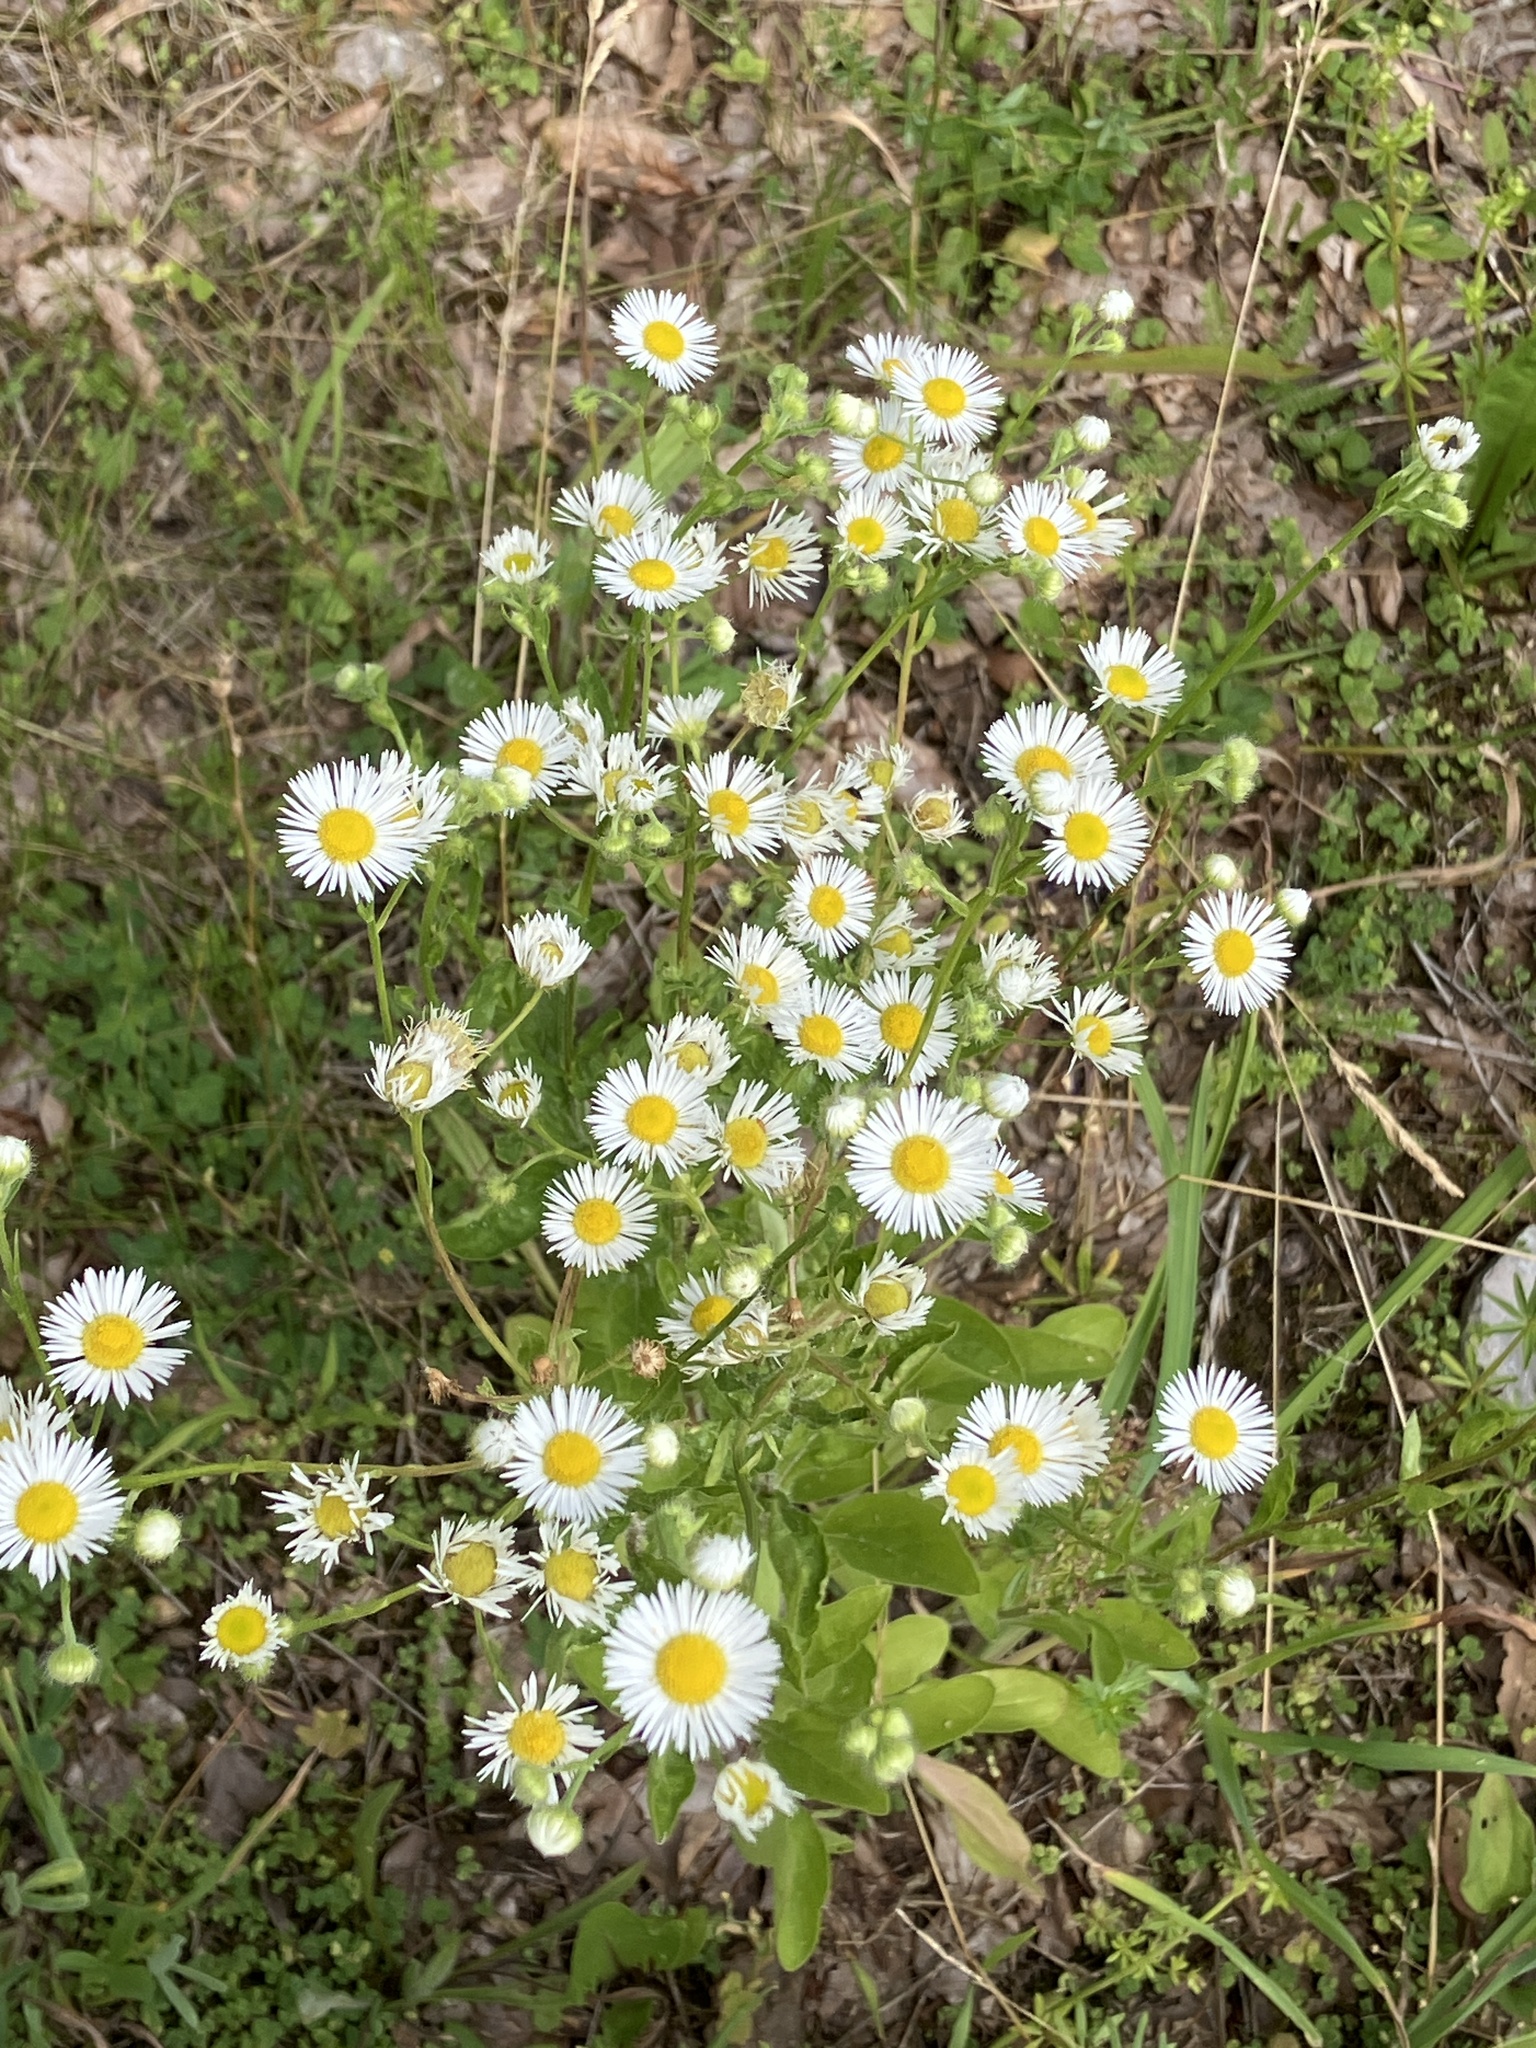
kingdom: Plantae
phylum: Tracheophyta
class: Magnoliopsida
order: Asterales
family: Asteraceae
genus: Erigeron
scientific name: Erigeron annuus
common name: Tall fleabane
